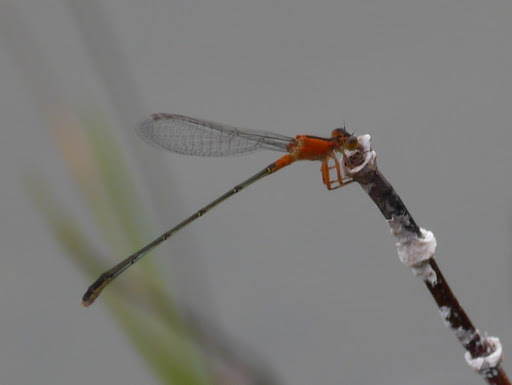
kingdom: Animalia
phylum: Arthropoda
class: Insecta
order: Odonata
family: Coenagrionidae
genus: Ischnura
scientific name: Ischnura ramburii
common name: Rambur's forktail
